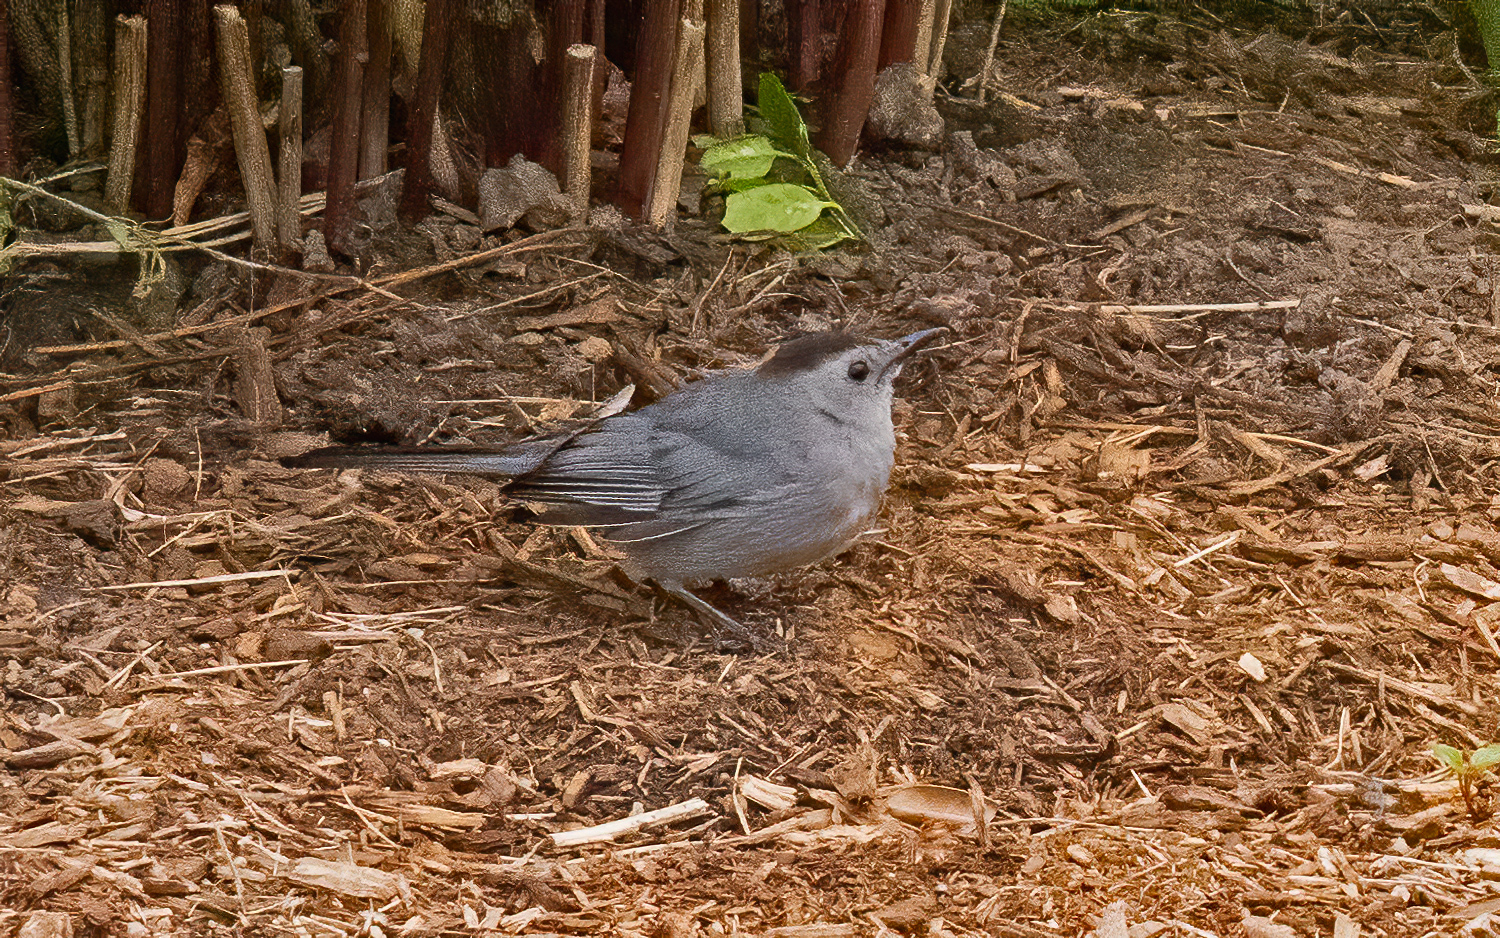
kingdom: Animalia
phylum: Chordata
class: Aves
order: Passeriformes
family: Mimidae
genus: Dumetella
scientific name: Dumetella carolinensis
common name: Gray catbird
